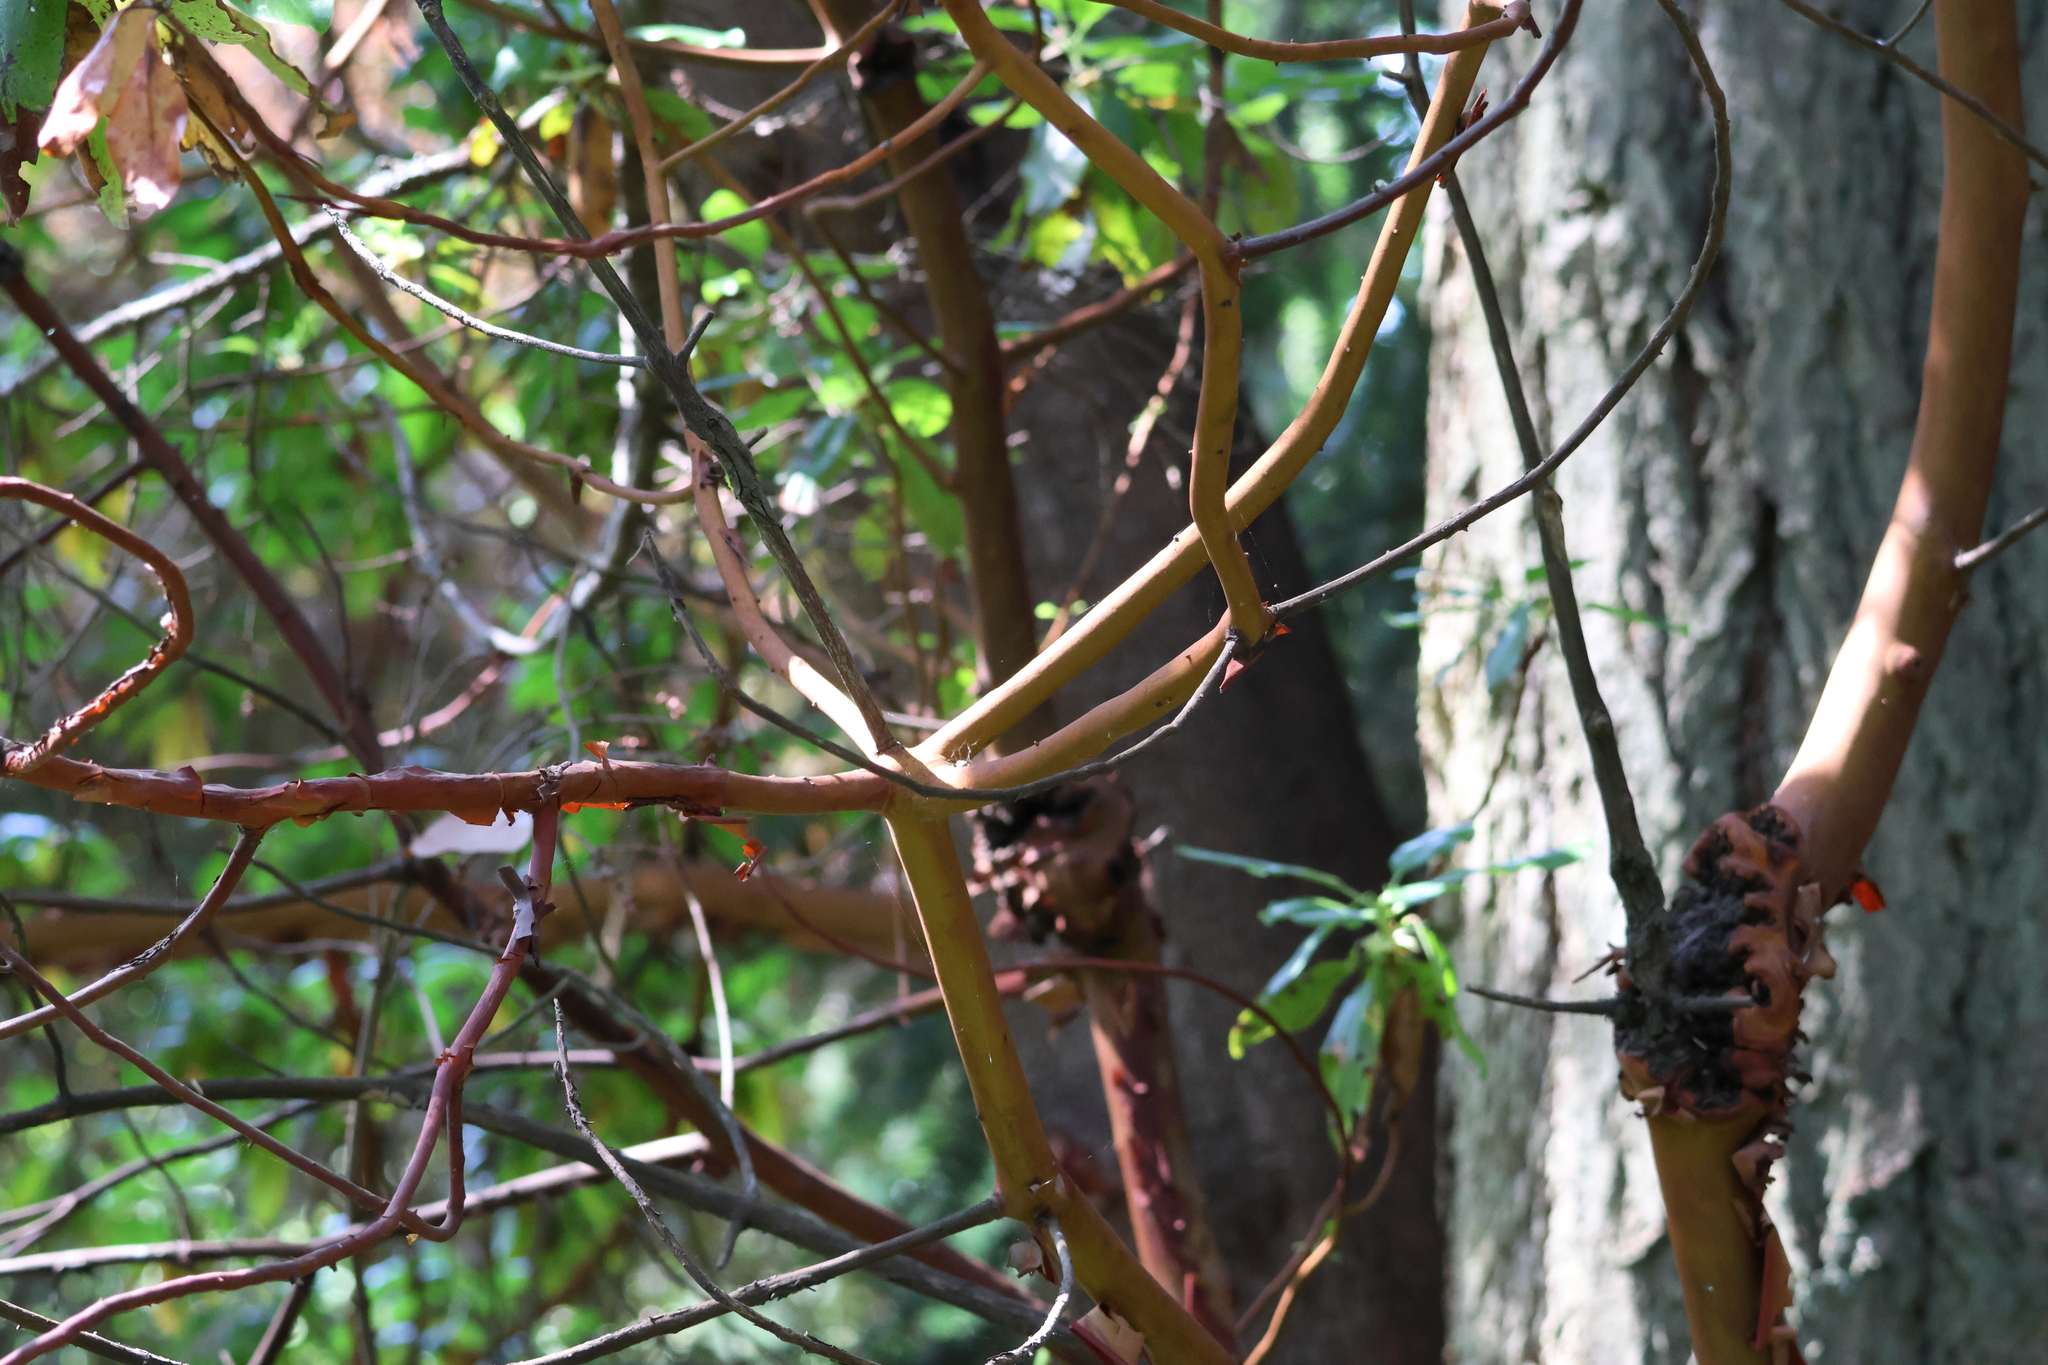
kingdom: Plantae
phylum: Tracheophyta
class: Magnoliopsida
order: Ericales
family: Ericaceae
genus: Arbutus
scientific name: Arbutus menziesii
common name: Pacific madrone
